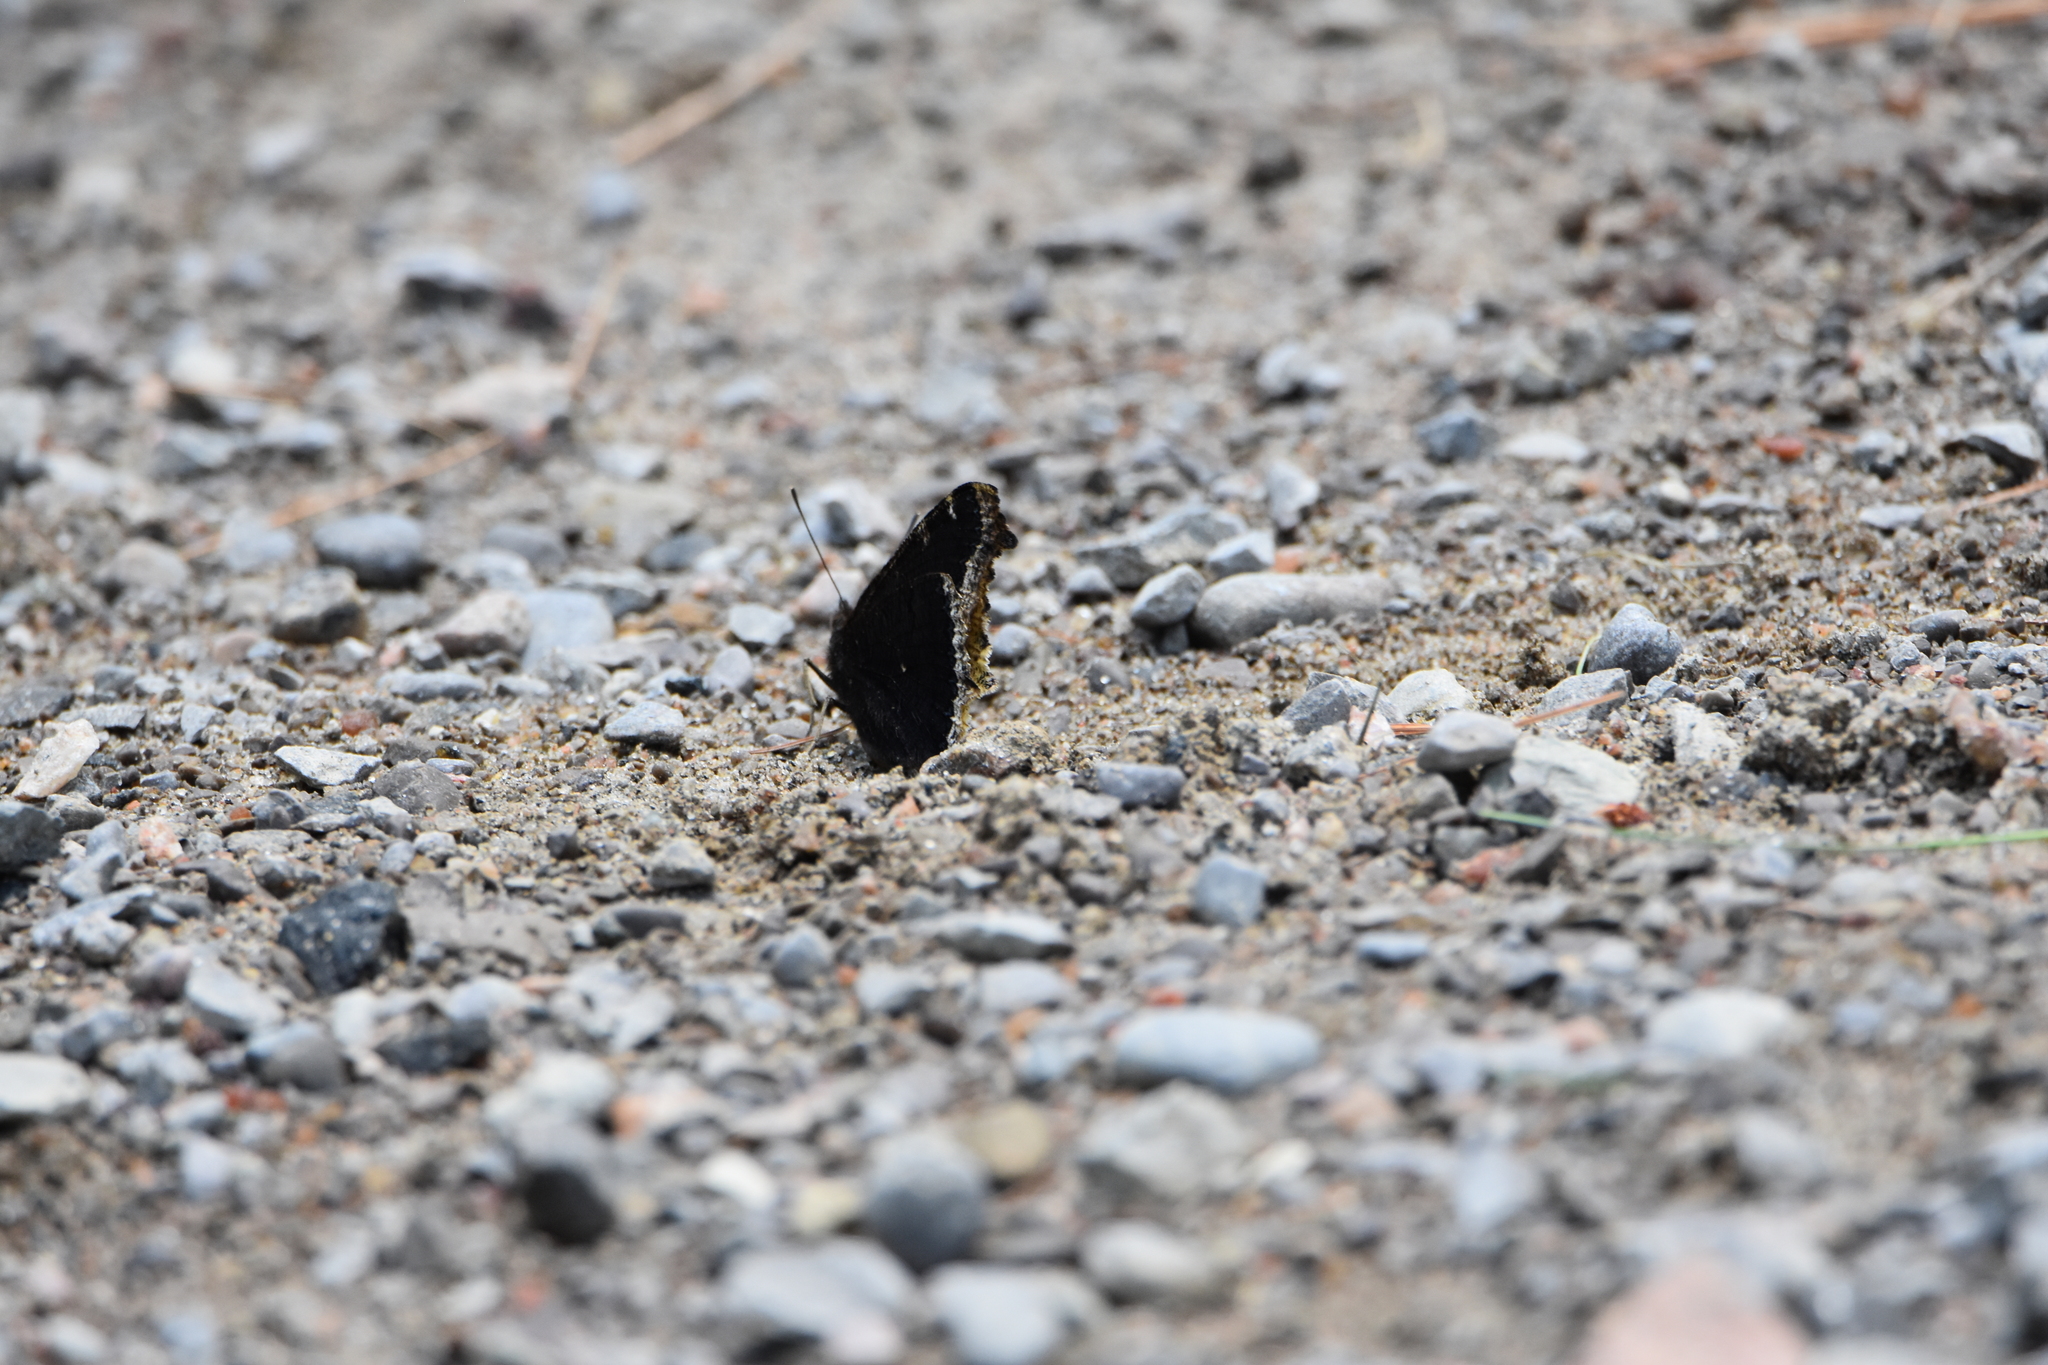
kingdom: Animalia
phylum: Arthropoda
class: Insecta
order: Lepidoptera
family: Nymphalidae
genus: Nymphalis
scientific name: Nymphalis antiopa
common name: Camberwell beauty
